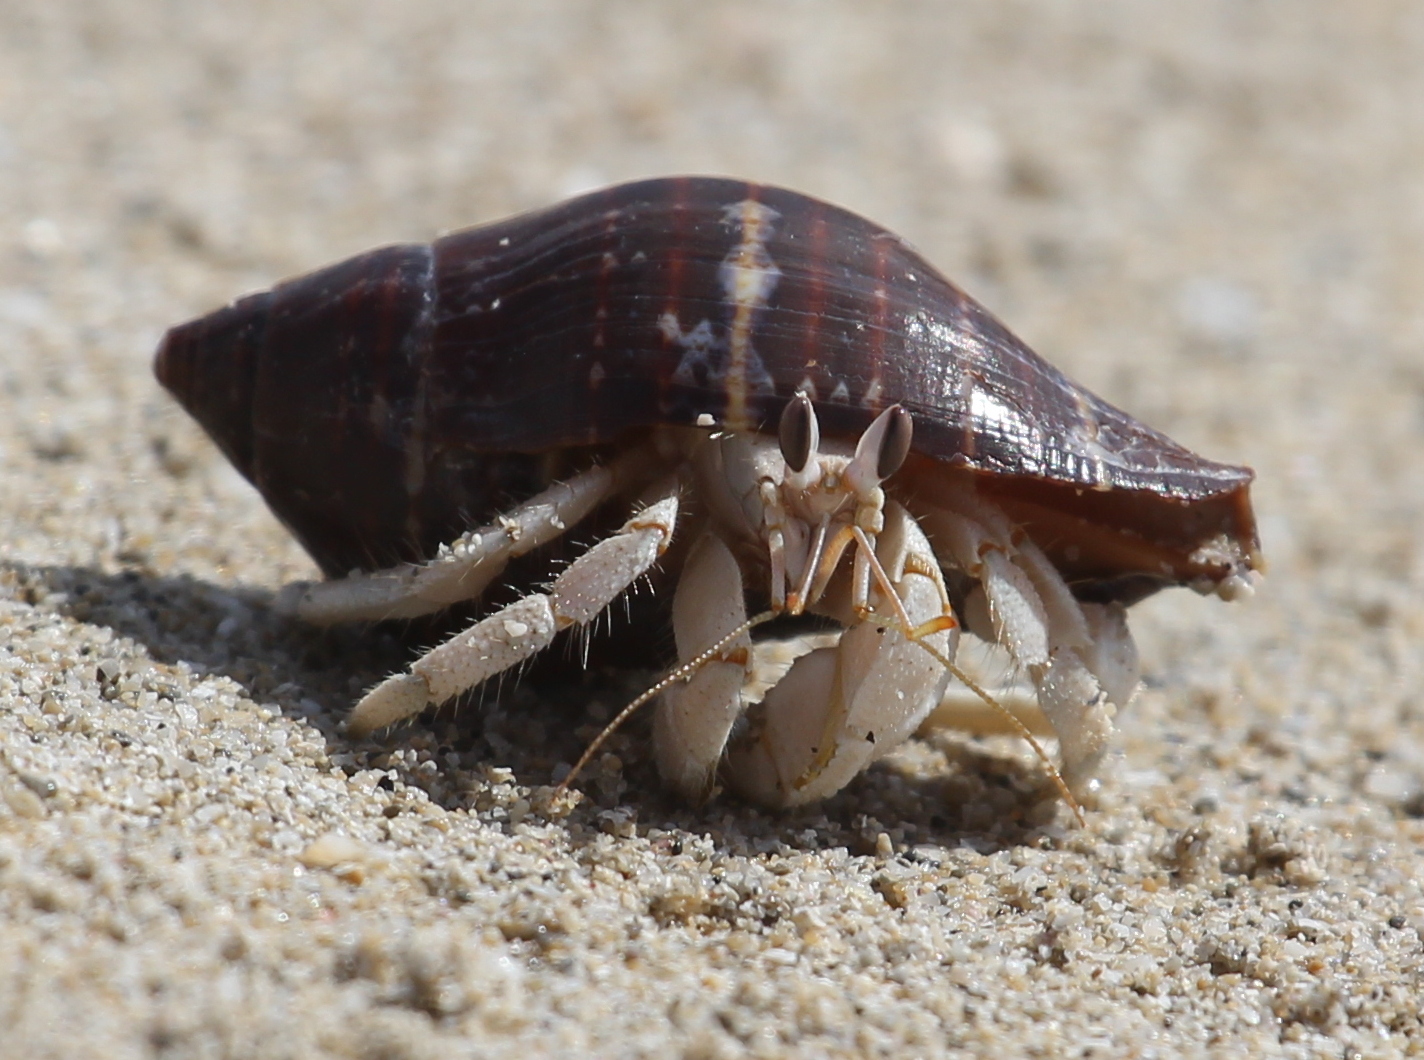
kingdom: Animalia
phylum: Arthropoda
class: Malacostraca
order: Decapoda
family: Coenobitidae
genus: Coenobita
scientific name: Coenobita scaevola
